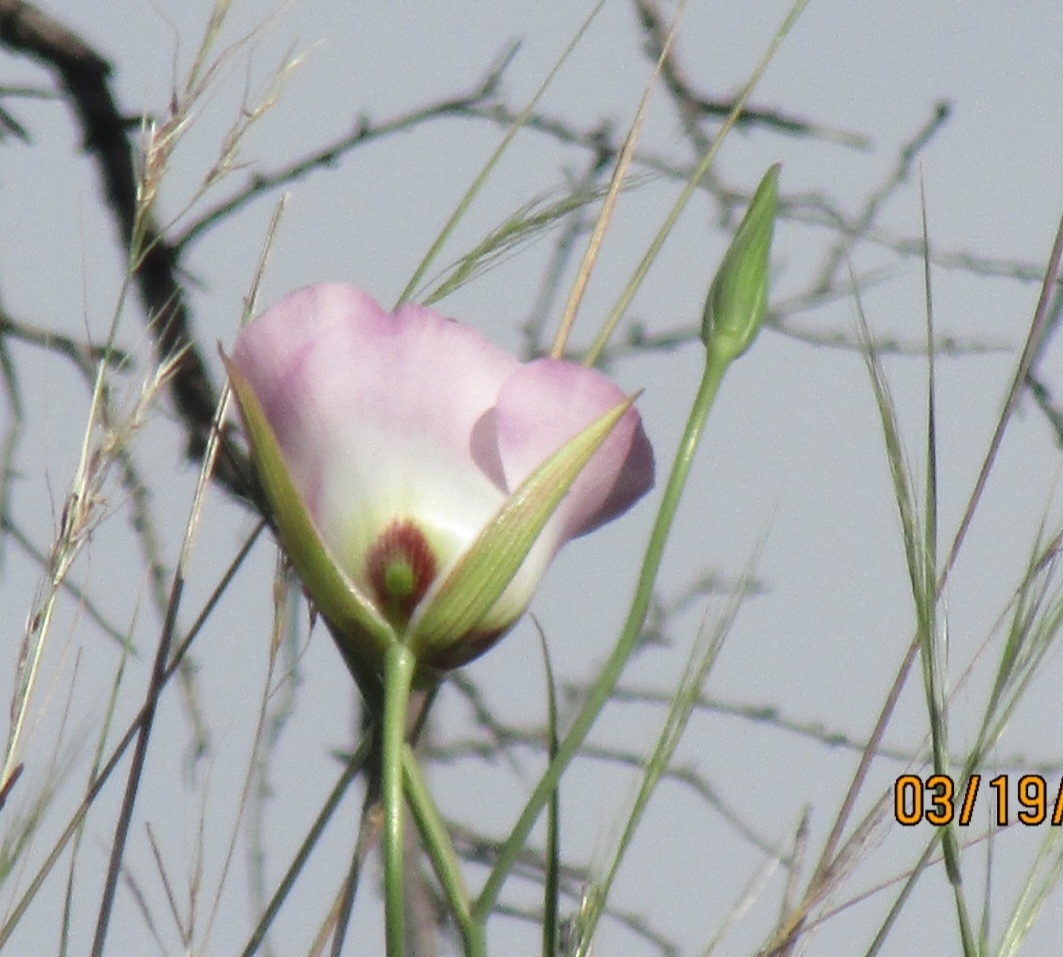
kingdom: Plantae
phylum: Tracheophyta
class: Liliopsida
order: Liliales
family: Liliaceae
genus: Calochortus
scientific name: Calochortus catalinae
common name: Catalina mariposa-lily
